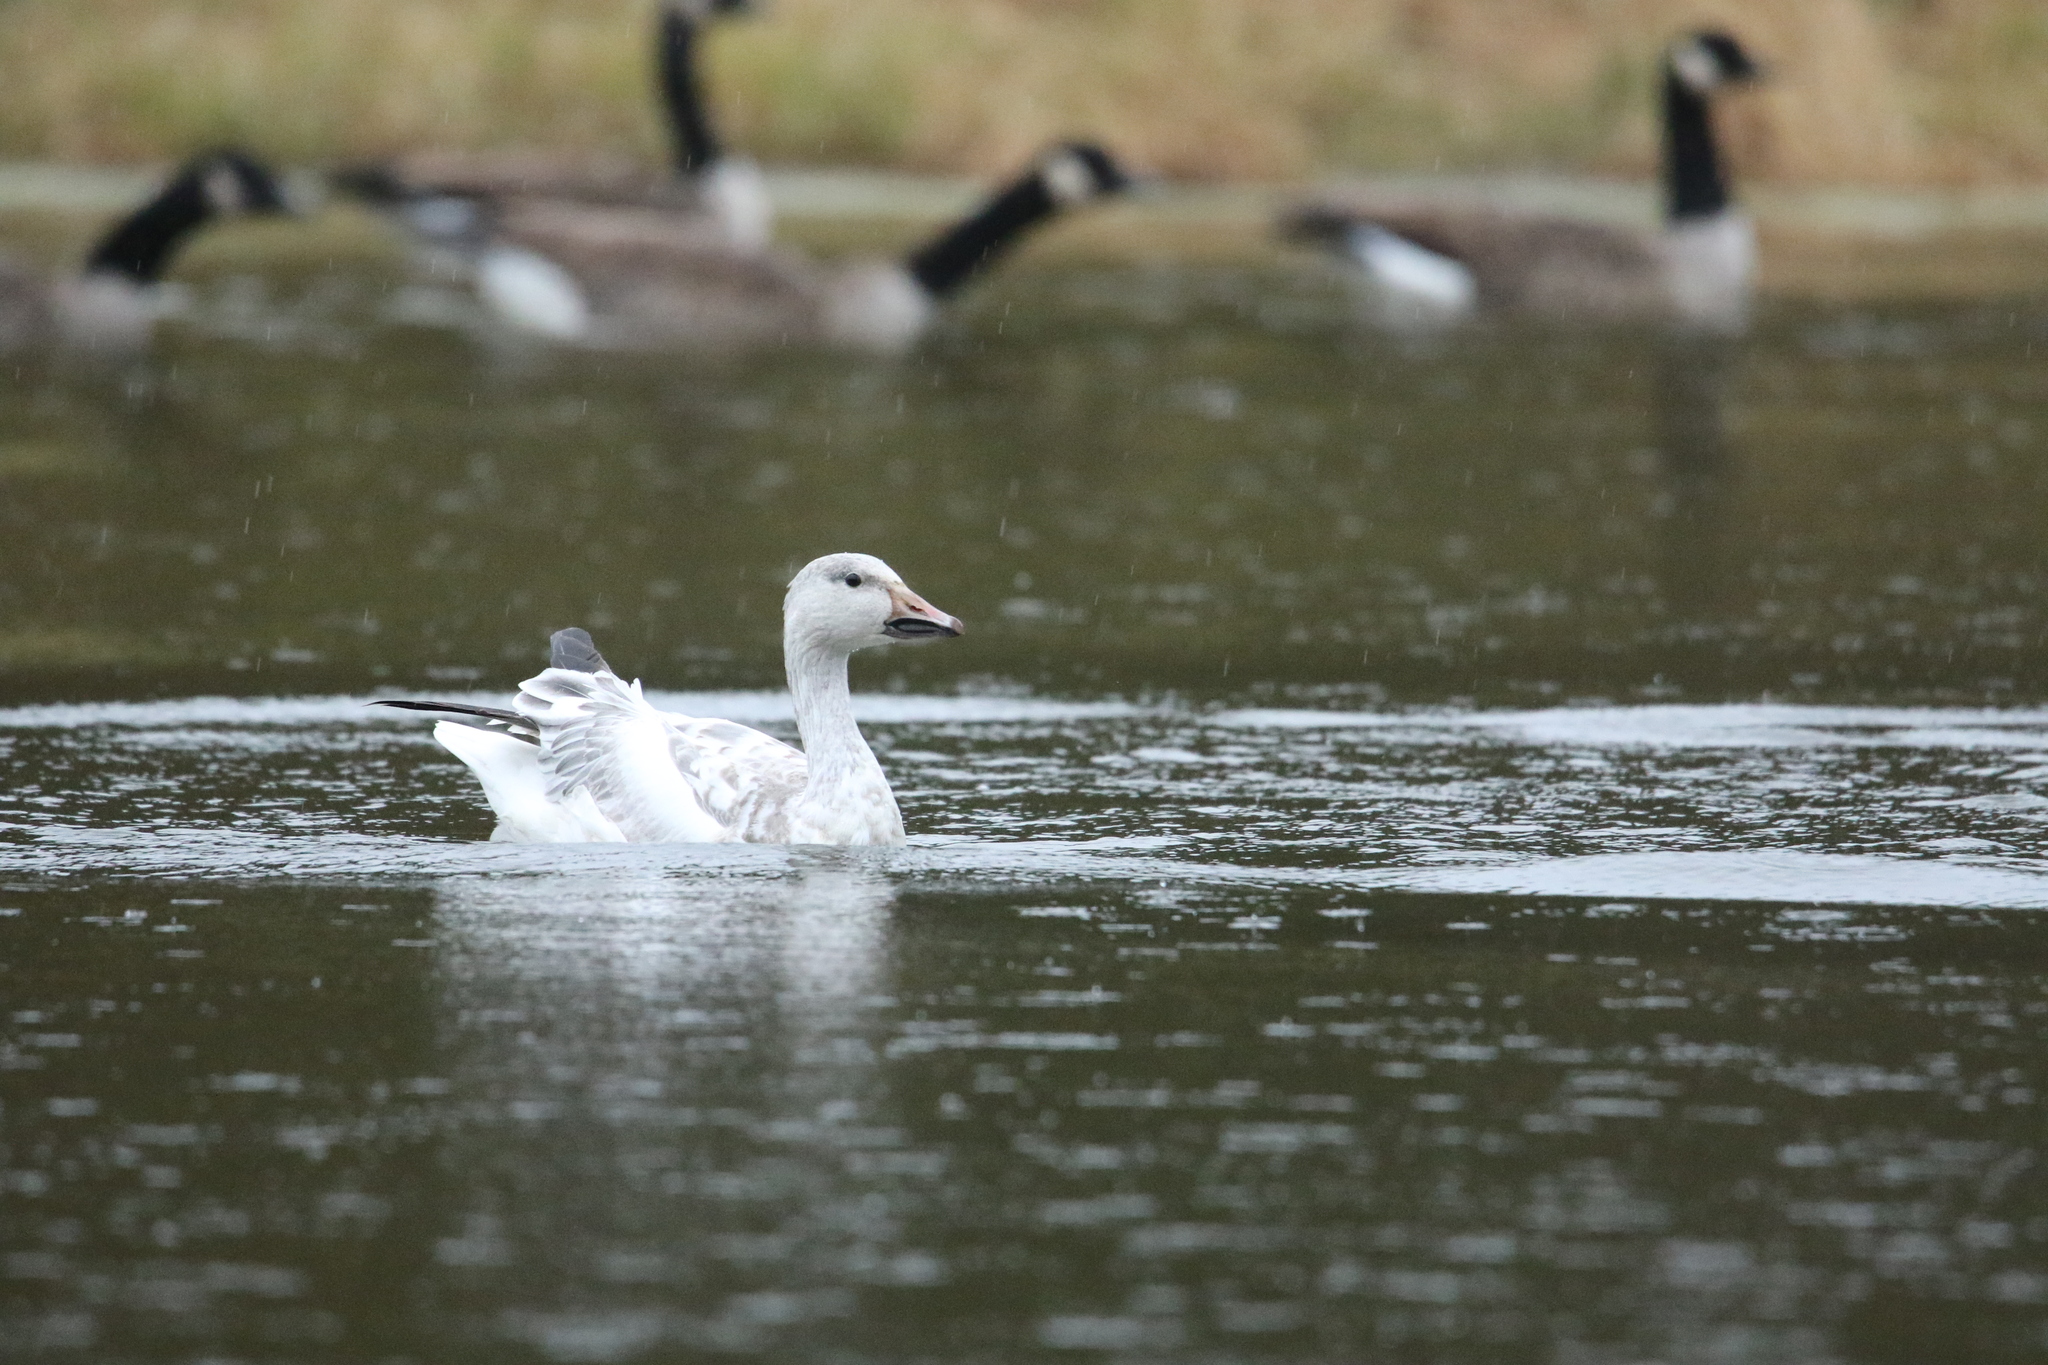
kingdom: Animalia
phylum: Chordata
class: Aves
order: Anseriformes
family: Anatidae
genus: Anser
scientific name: Anser caerulescens
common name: Snow goose
